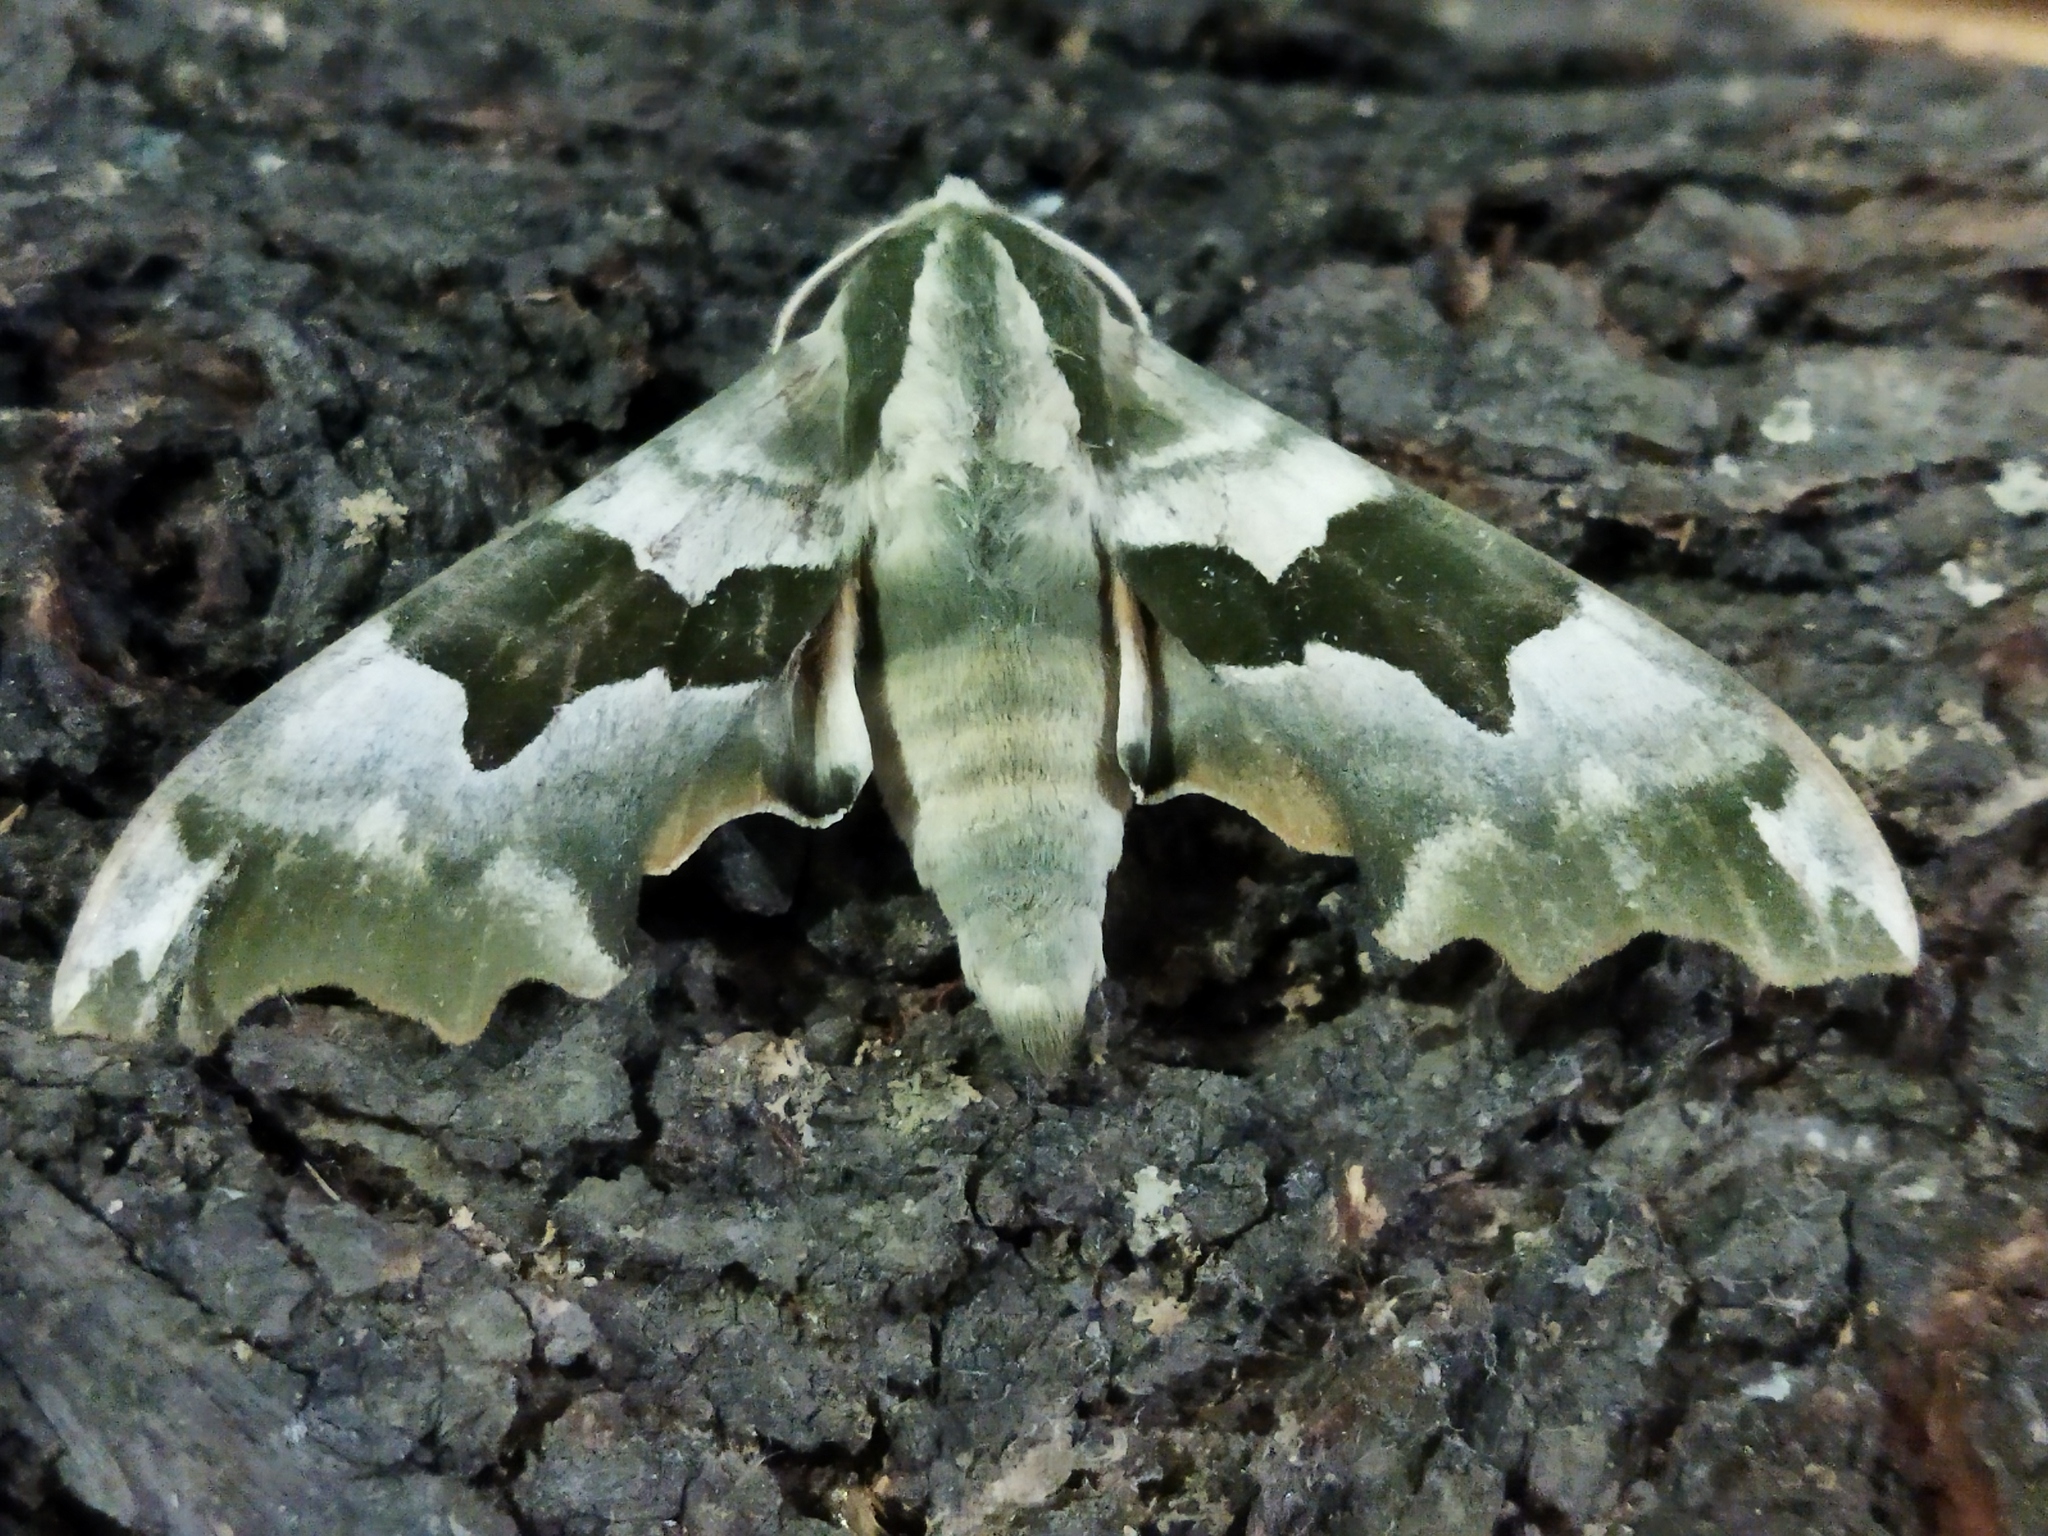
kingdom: Animalia
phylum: Arthropoda
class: Insecta
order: Lepidoptera
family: Sphingidae
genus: Mimas
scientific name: Mimas tiliae
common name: Lime hawk-moth
